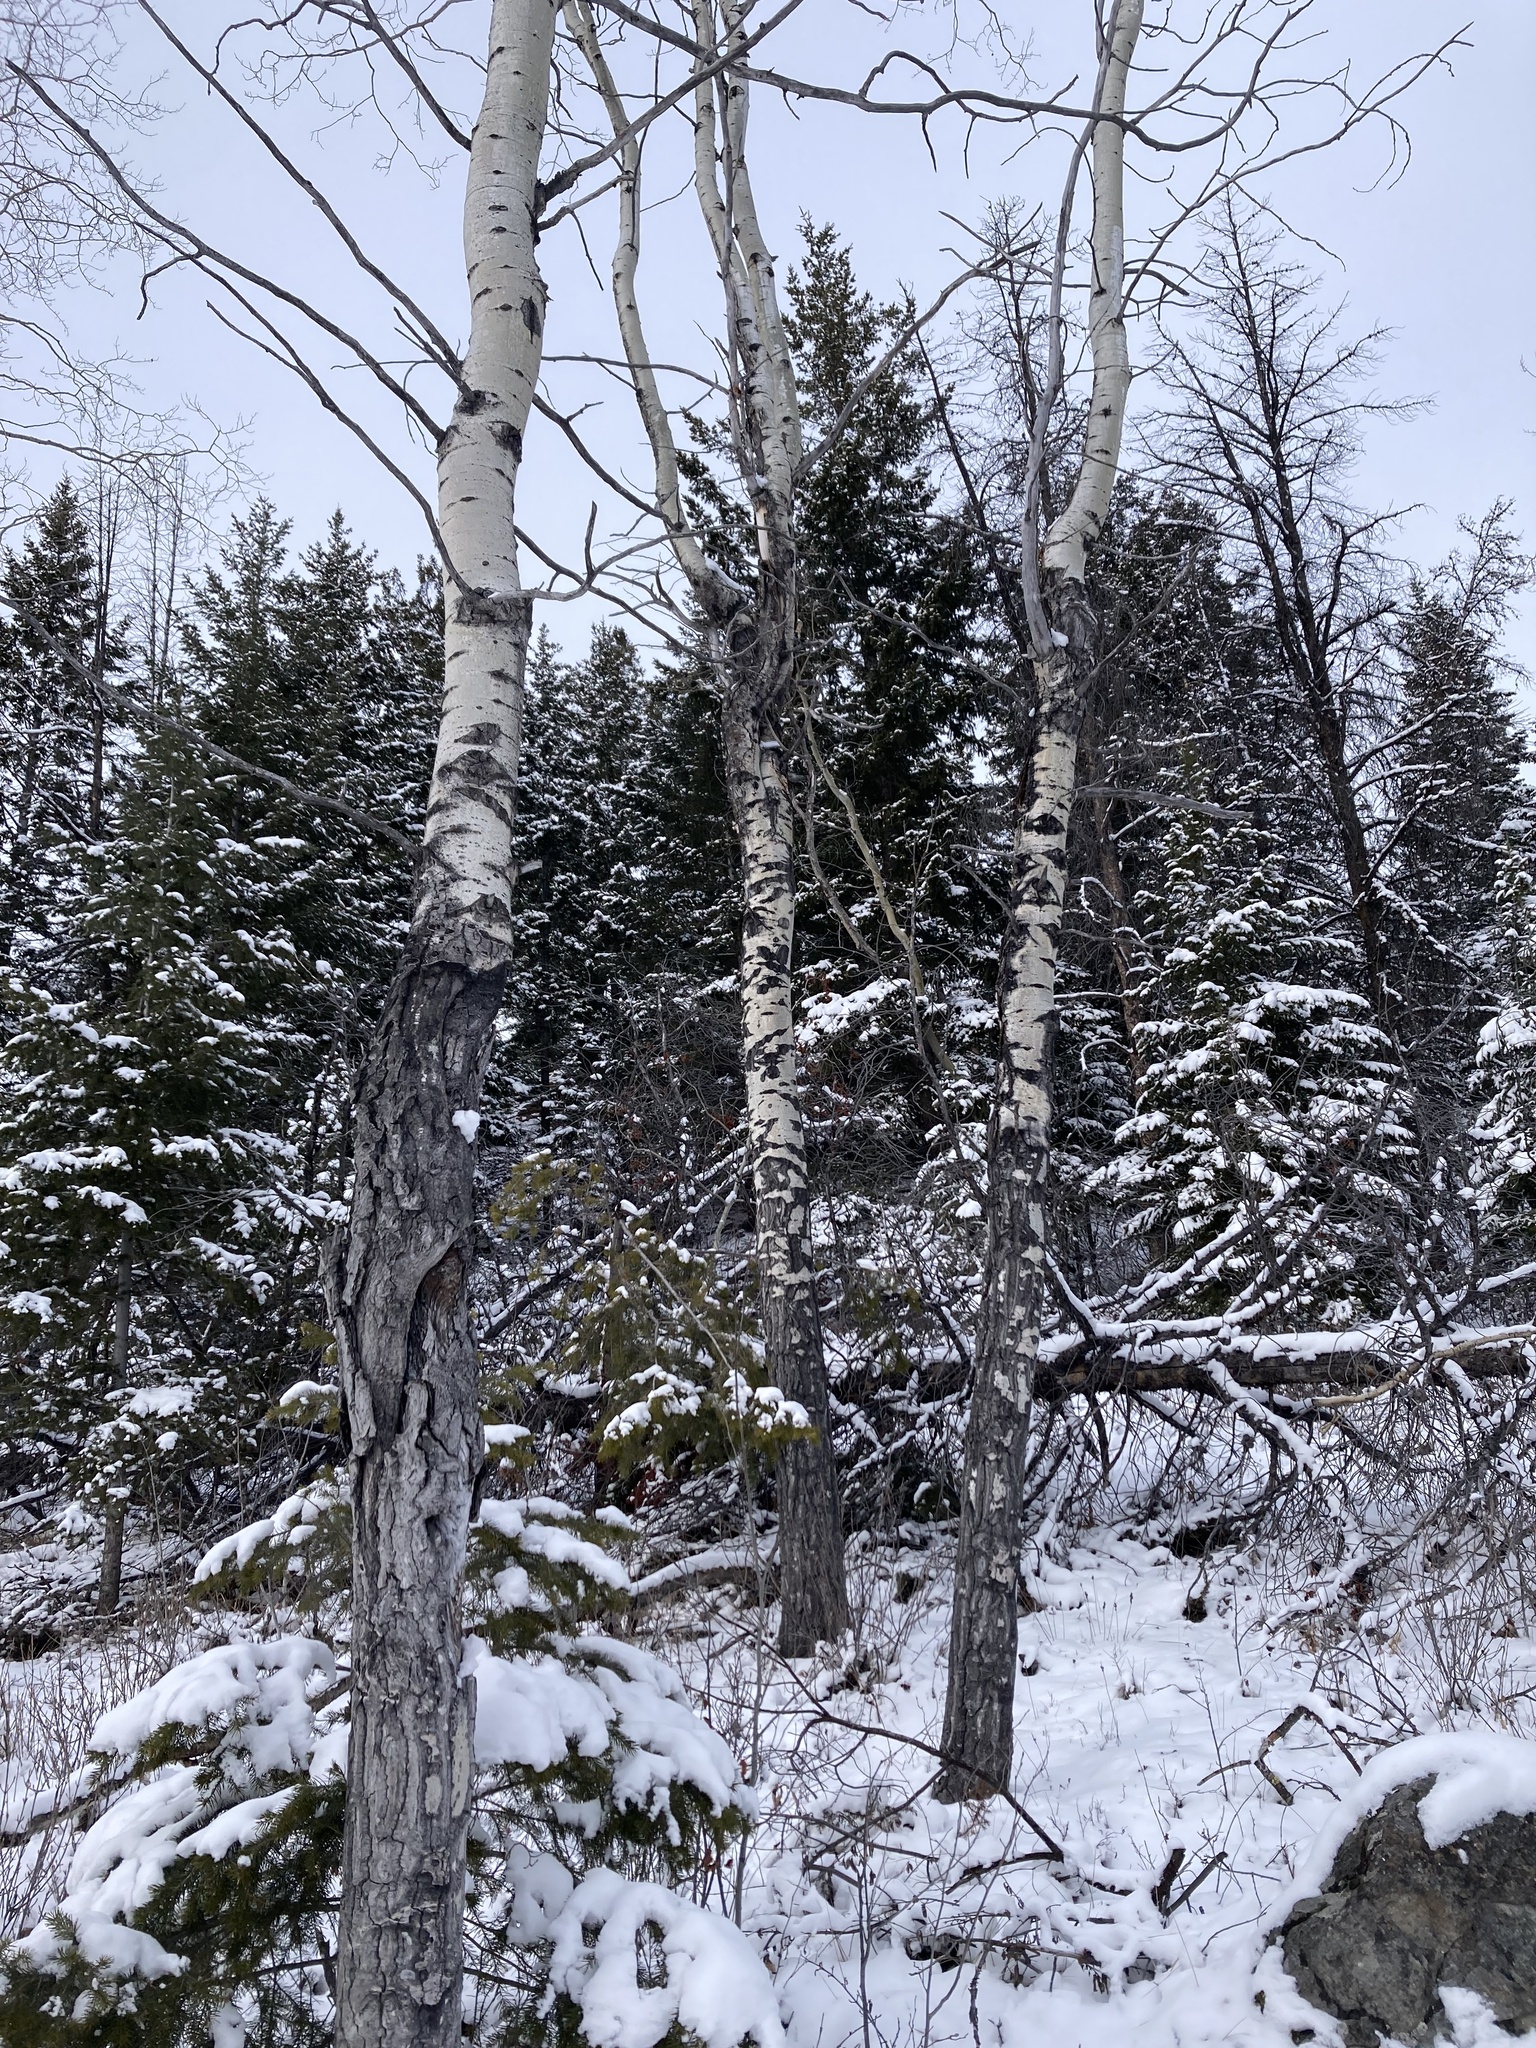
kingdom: Plantae
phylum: Tracheophyta
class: Magnoliopsida
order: Malpighiales
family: Salicaceae
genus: Populus
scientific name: Populus tremuloides
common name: Quaking aspen
